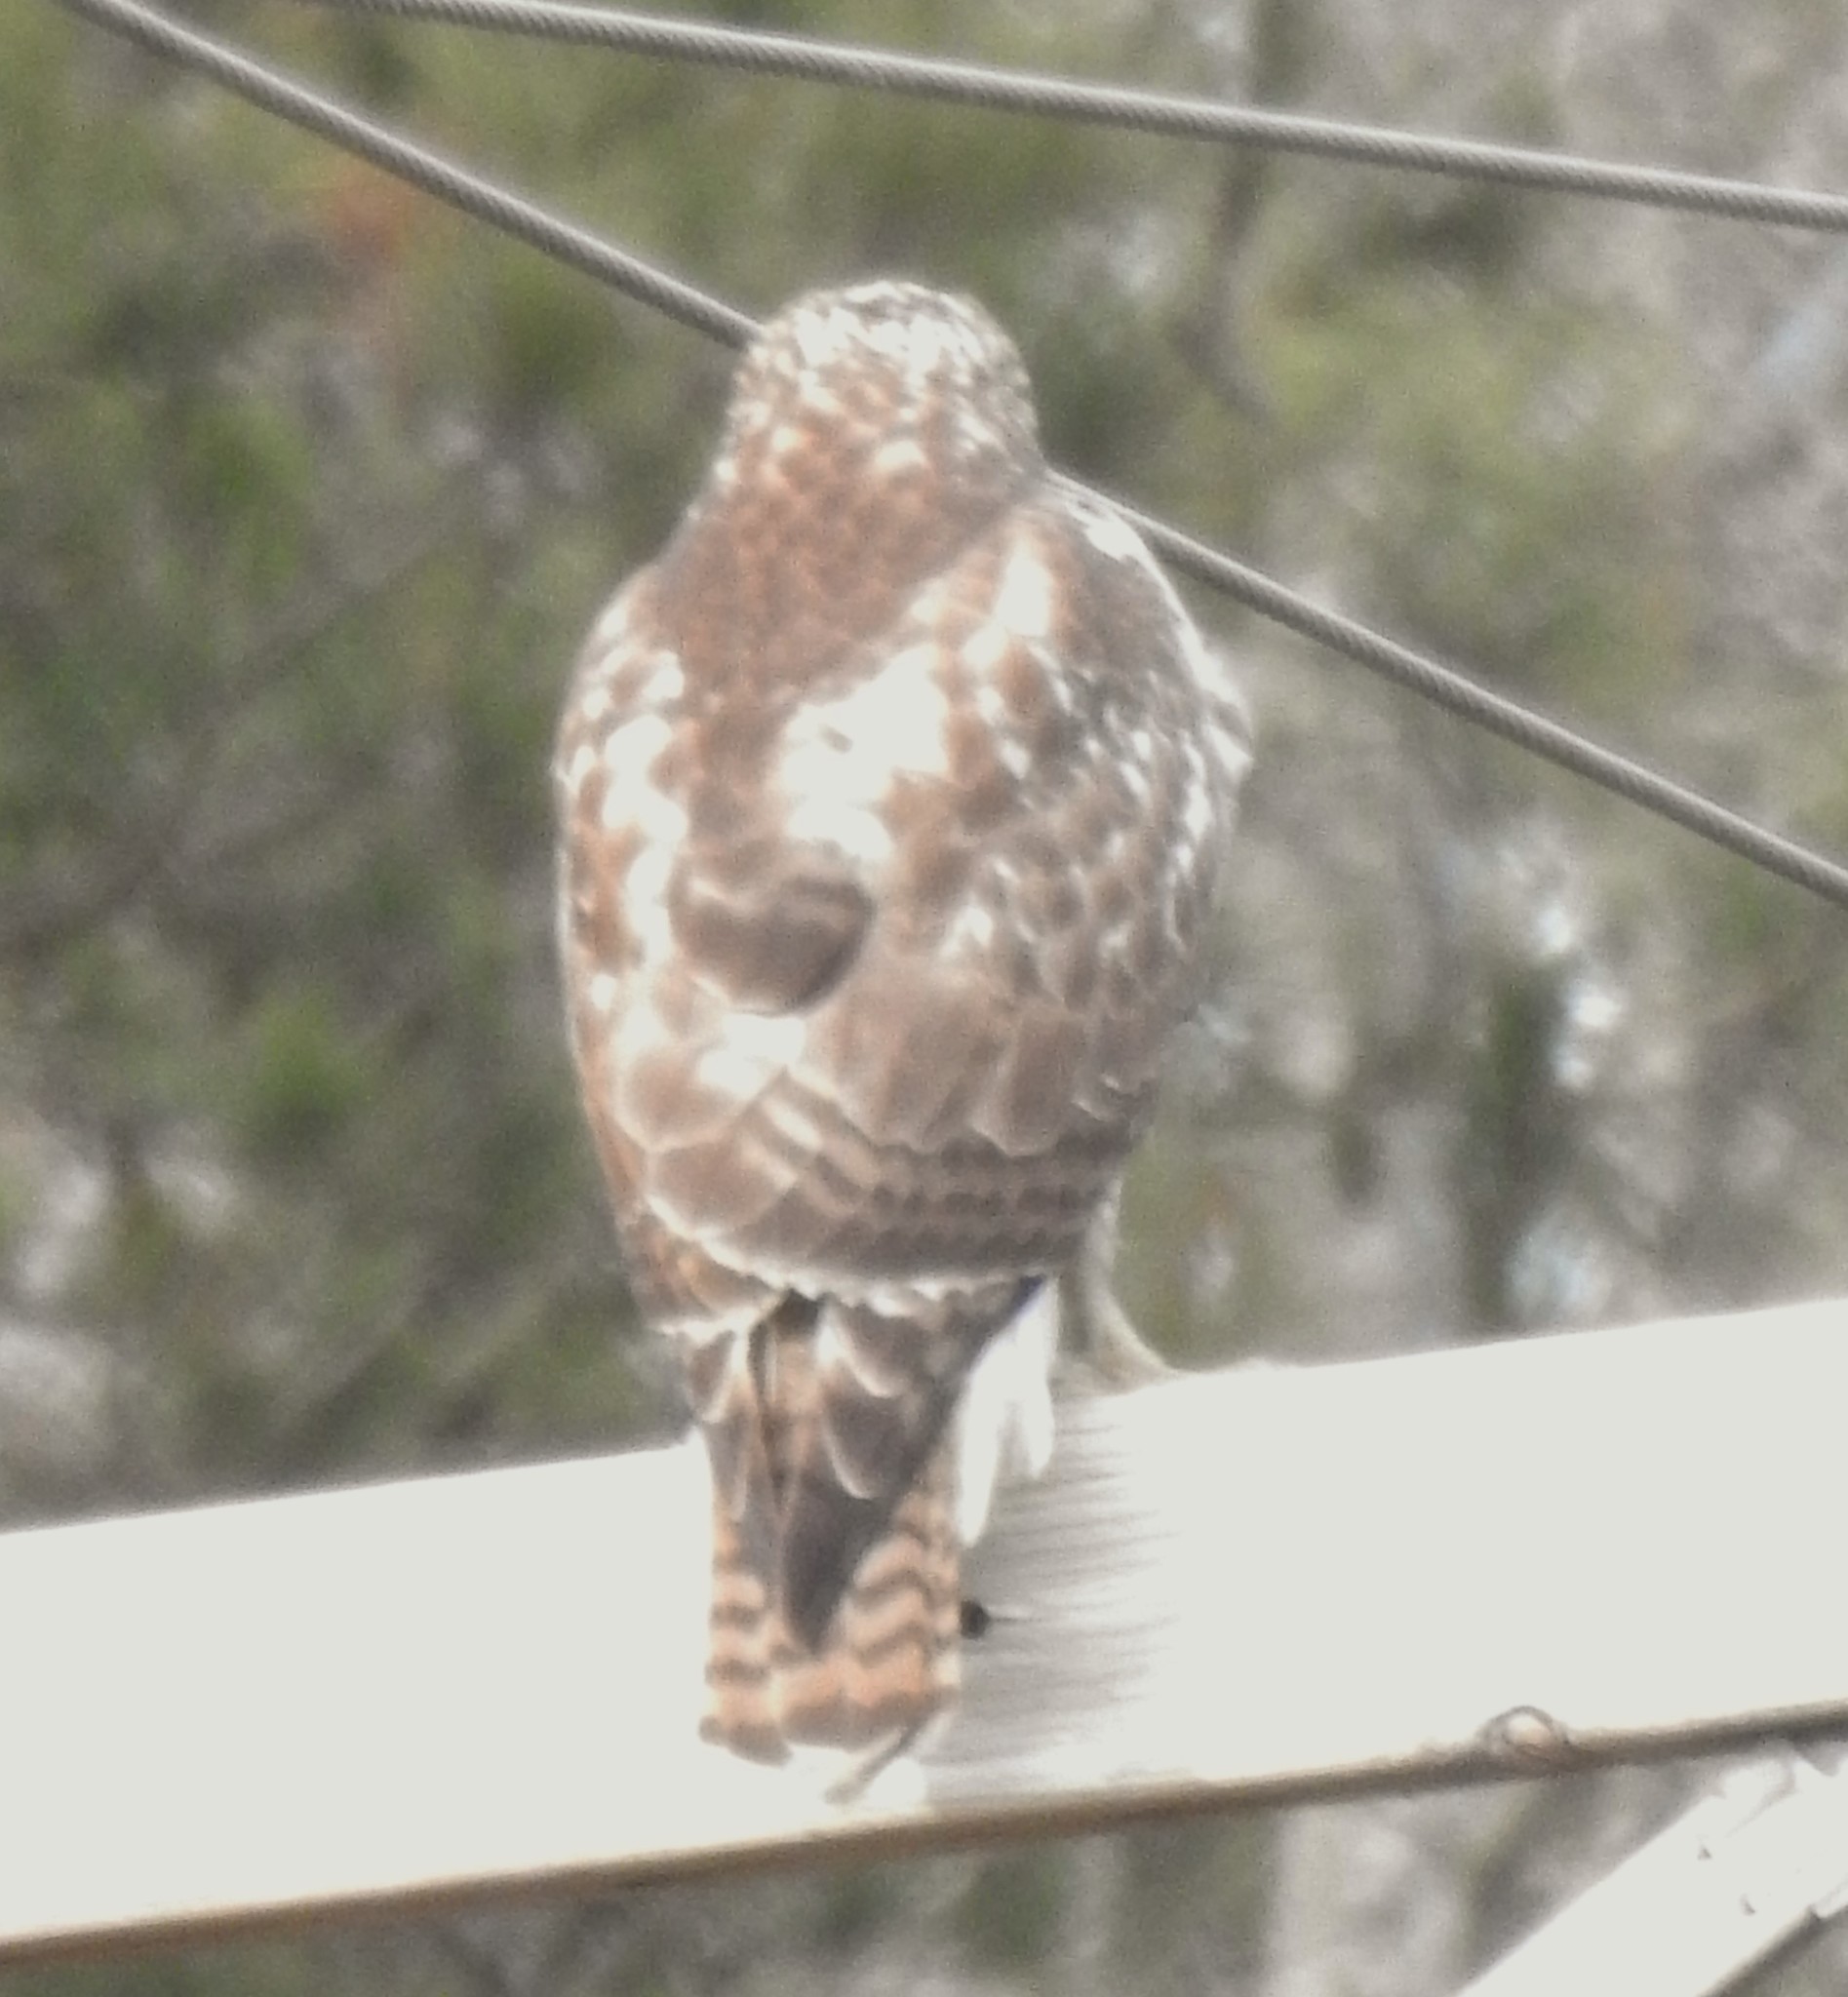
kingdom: Animalia
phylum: Chordata
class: Aves
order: Accipitriformes
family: Accipitridae
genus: Buteo
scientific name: Buteo jamaicensis
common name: Red-tailed hawk
